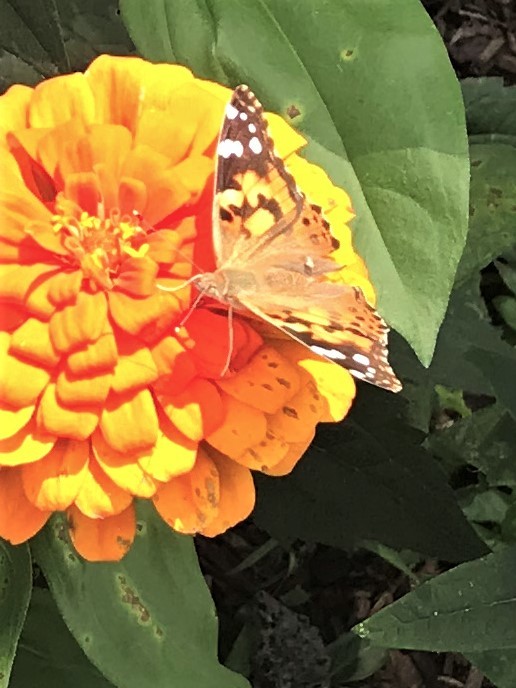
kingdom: Animalia
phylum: Arthropoda
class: Insecta
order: Lepidoptera
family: Nymphalidae
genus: Vanessa
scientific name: Vanessa cardui
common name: Painted lady
